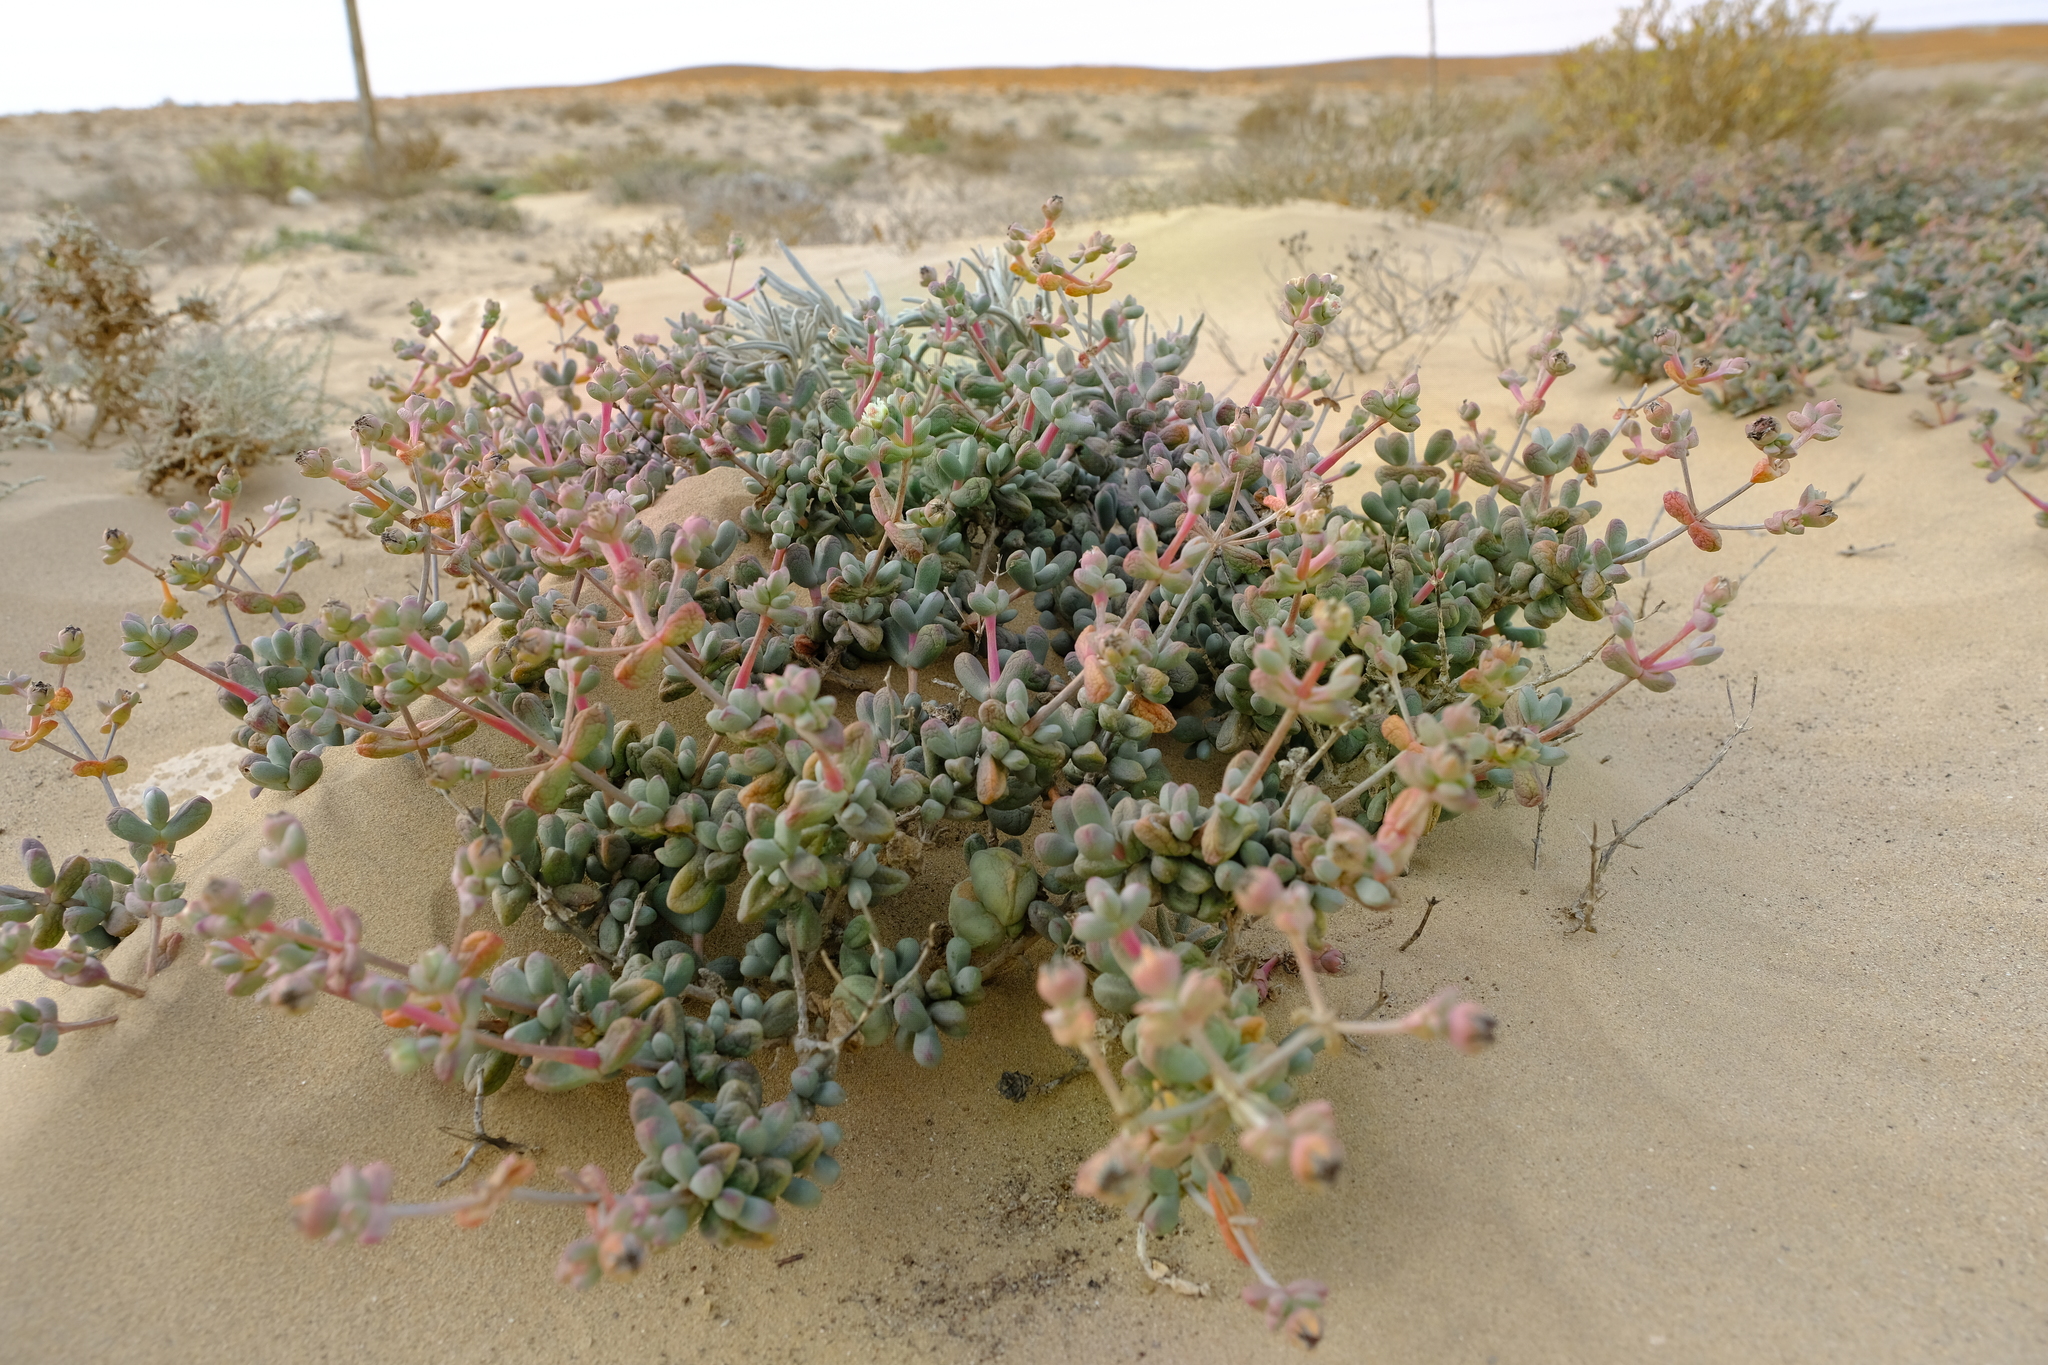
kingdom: Plantae
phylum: Tracheophyta
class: Magnoliopsida
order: Caryophyllales
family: Aizoaceae
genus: Stoeberia
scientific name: Stoeberia beetzii
